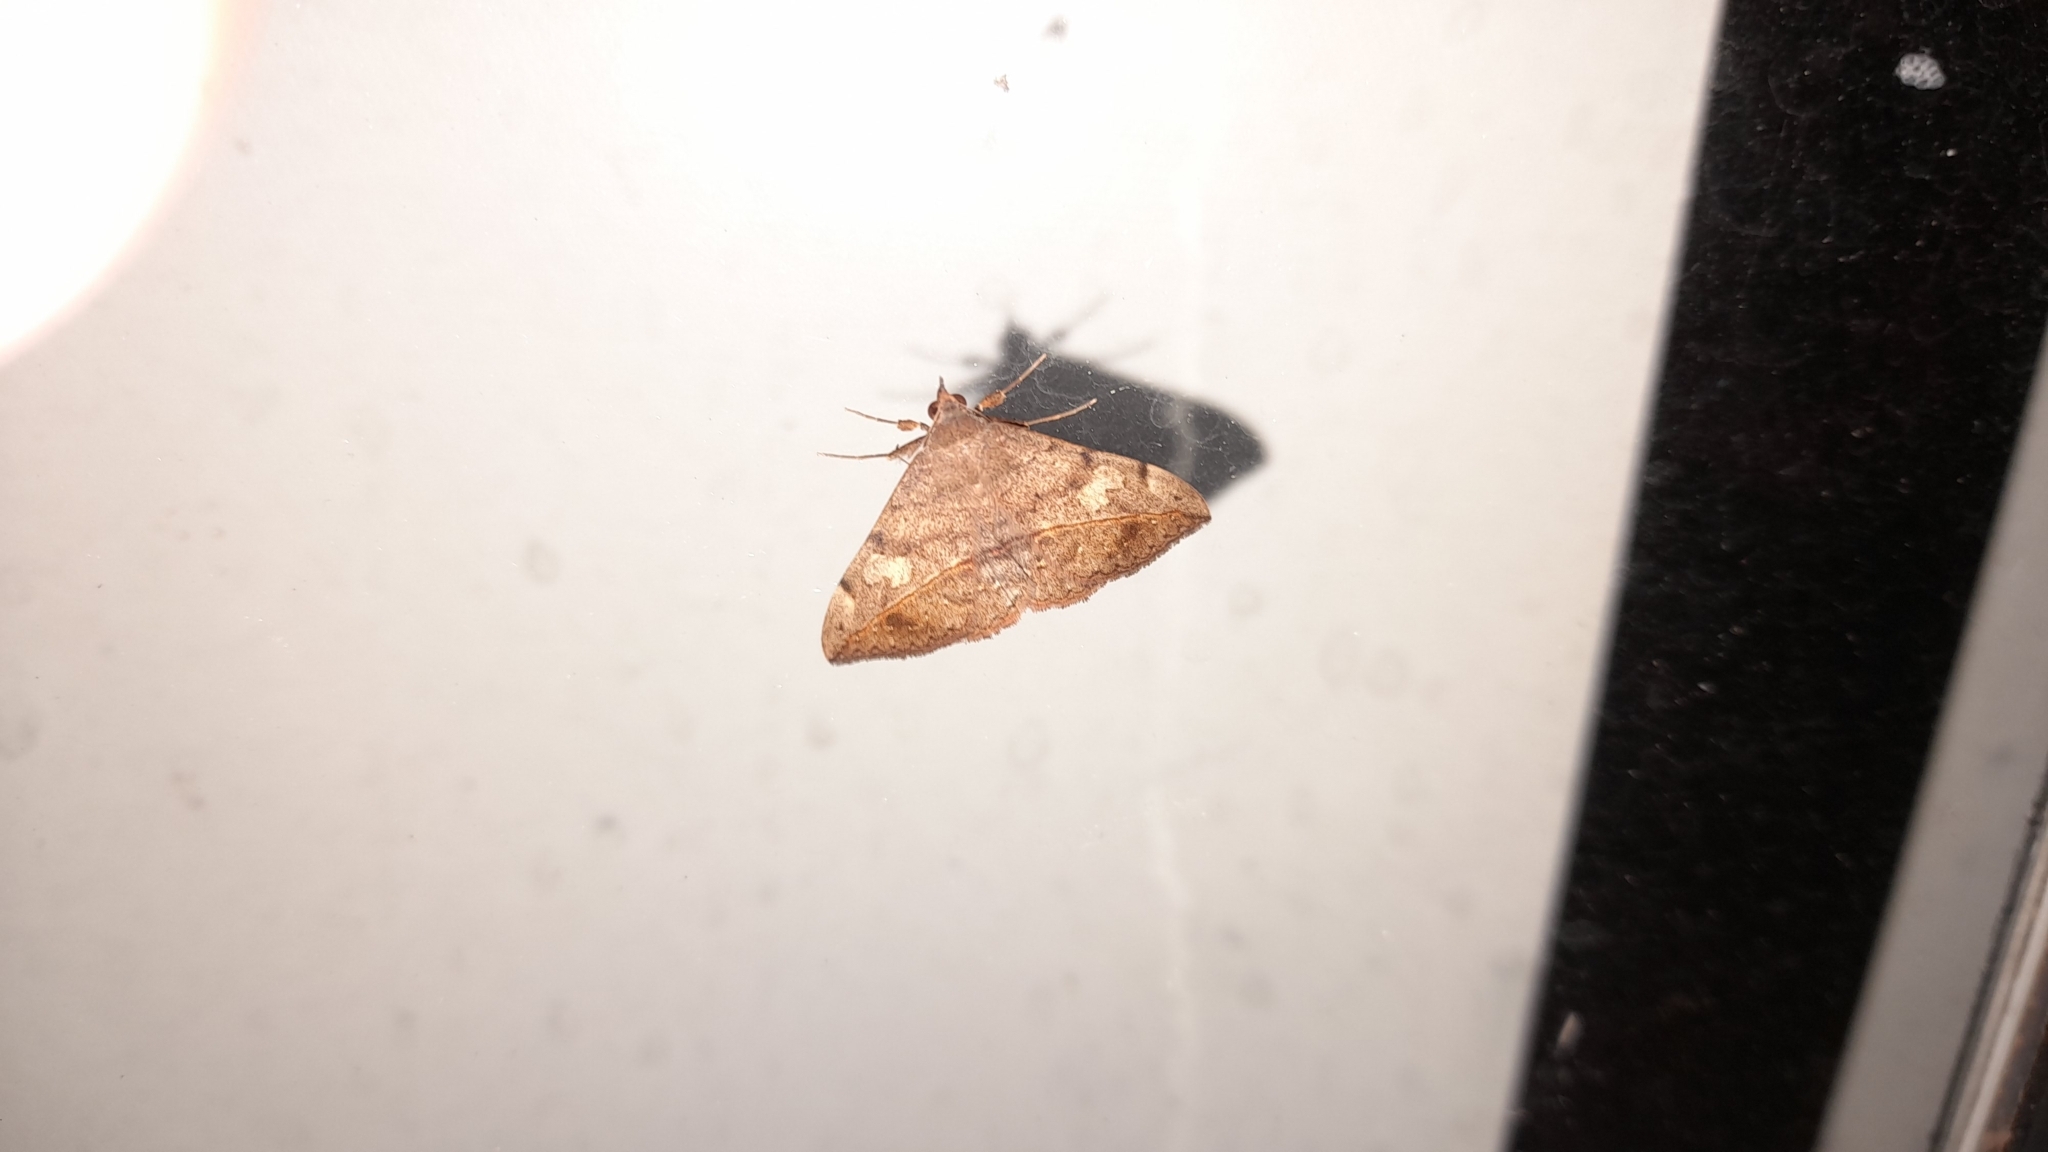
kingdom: Animalia
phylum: Arthropoda
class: Insecta
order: Lepidoptera
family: Erebidae
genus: Anticarsia
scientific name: Anticarsia gemmatalis
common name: Cutworm moth
